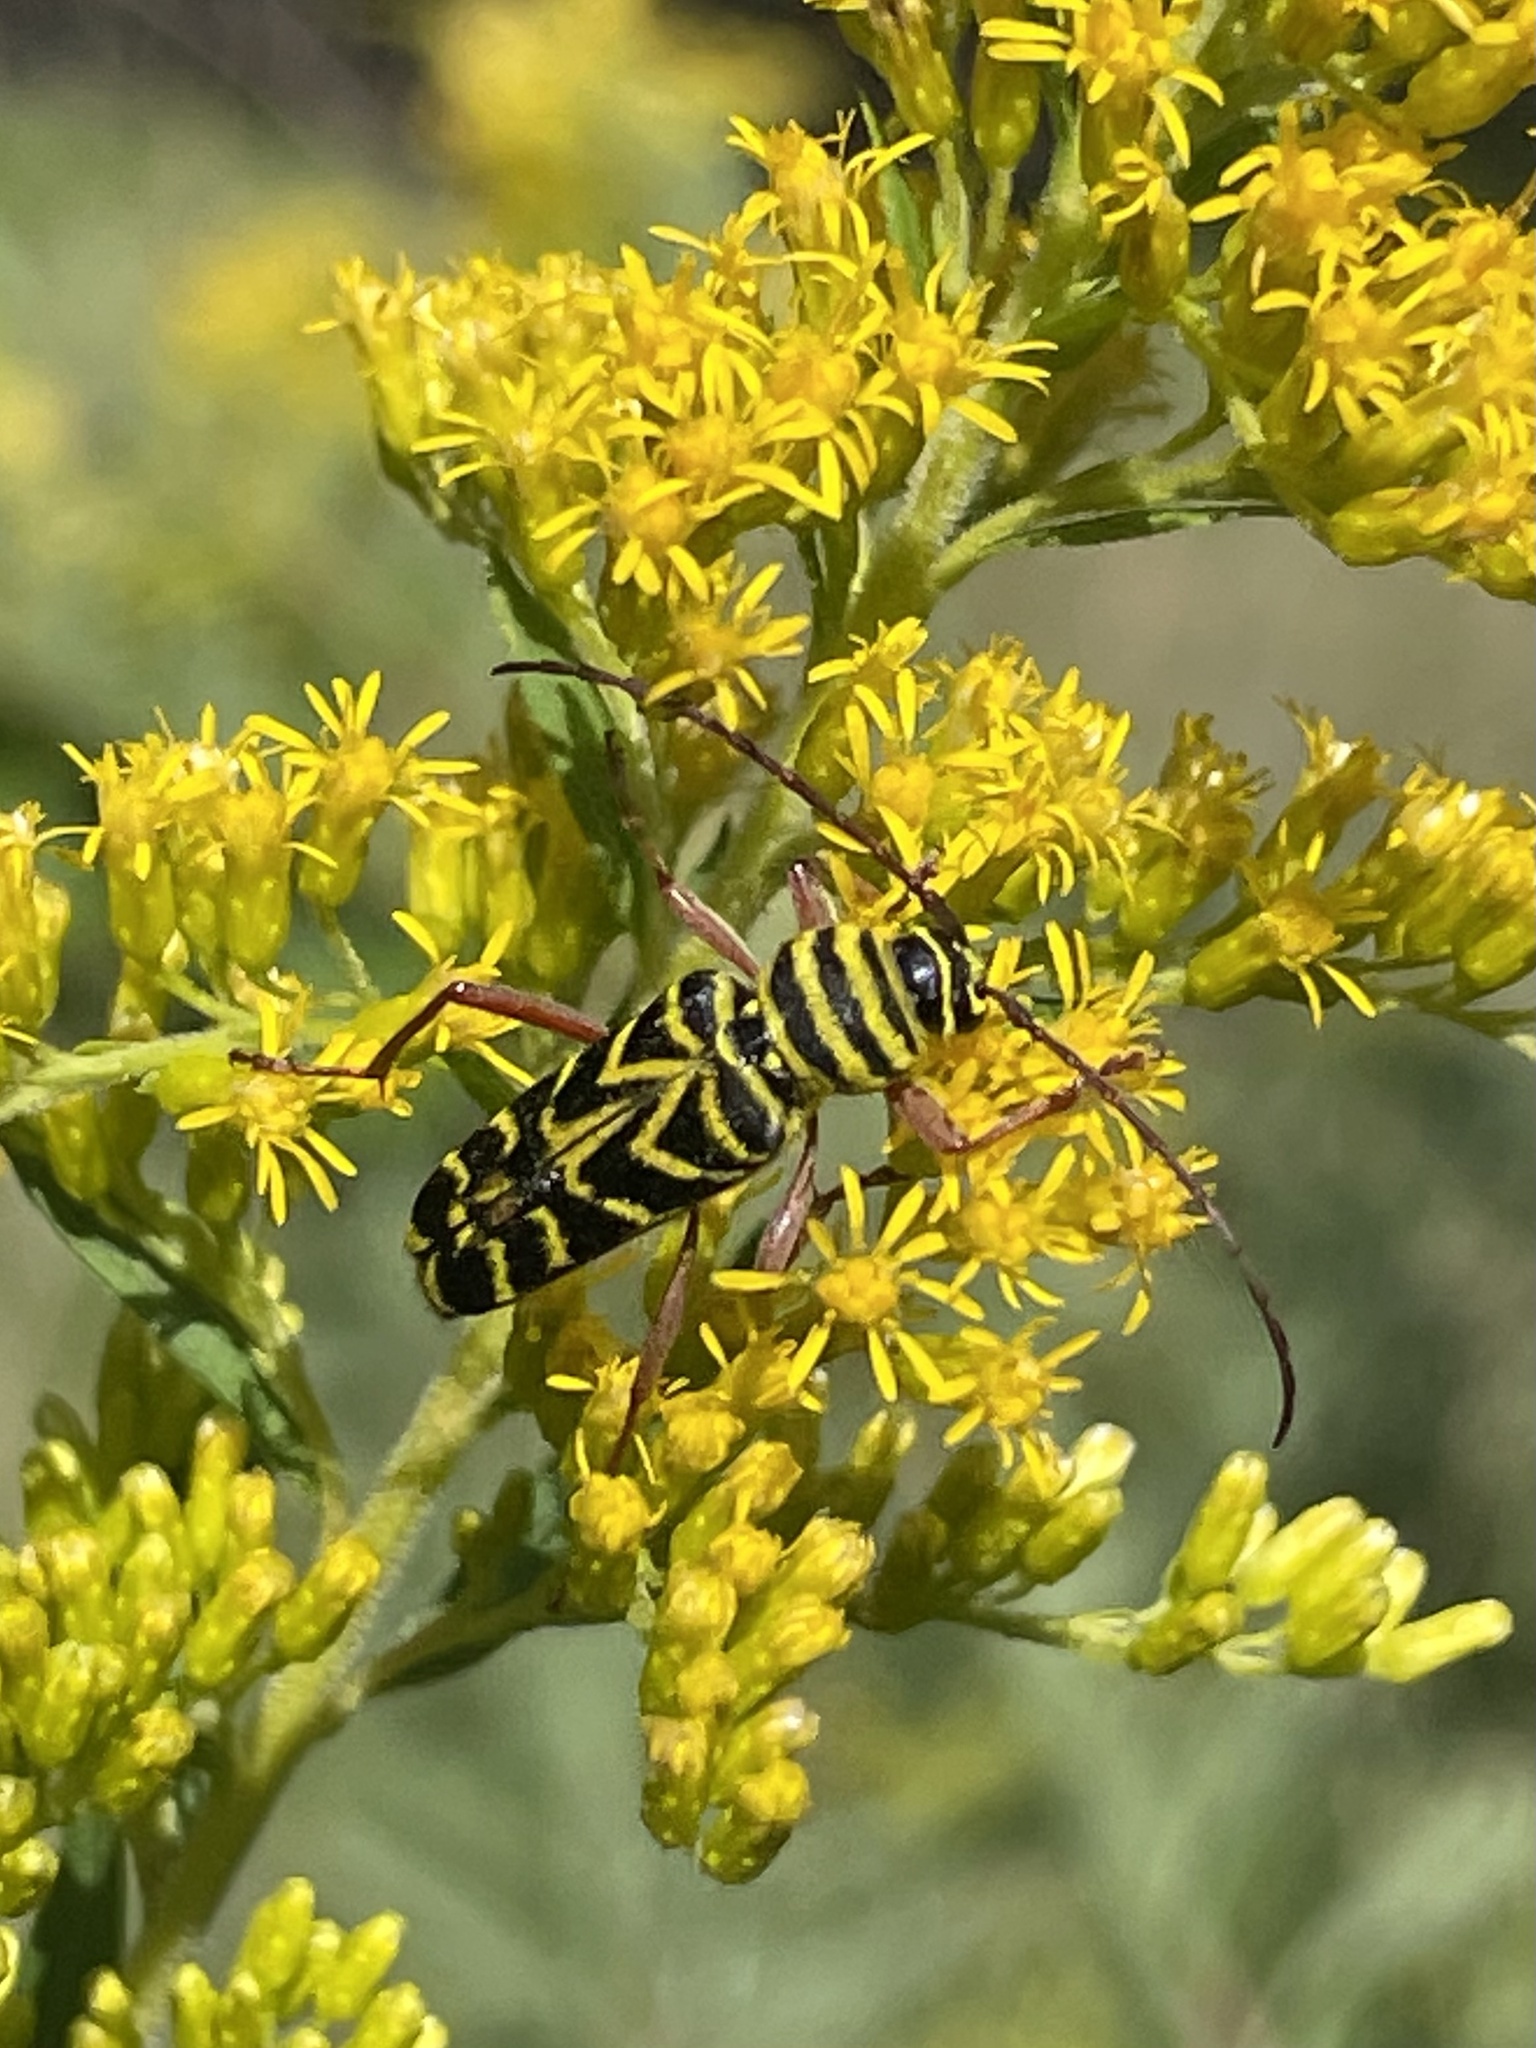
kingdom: Animalia
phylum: Arthropoda
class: Insecta
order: Coleoptera
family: Cerambycidae
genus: Megacyllene
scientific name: Megacyllene robiniae
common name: Locust borer
